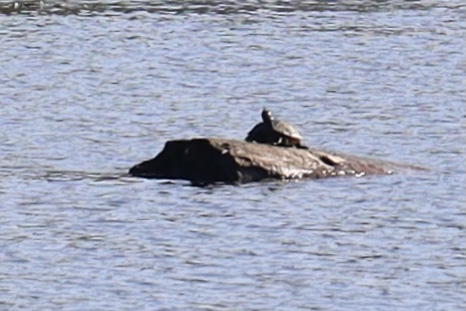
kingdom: Animalia
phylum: Chordata
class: Testudines
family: Emydidae
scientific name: Emydidae
